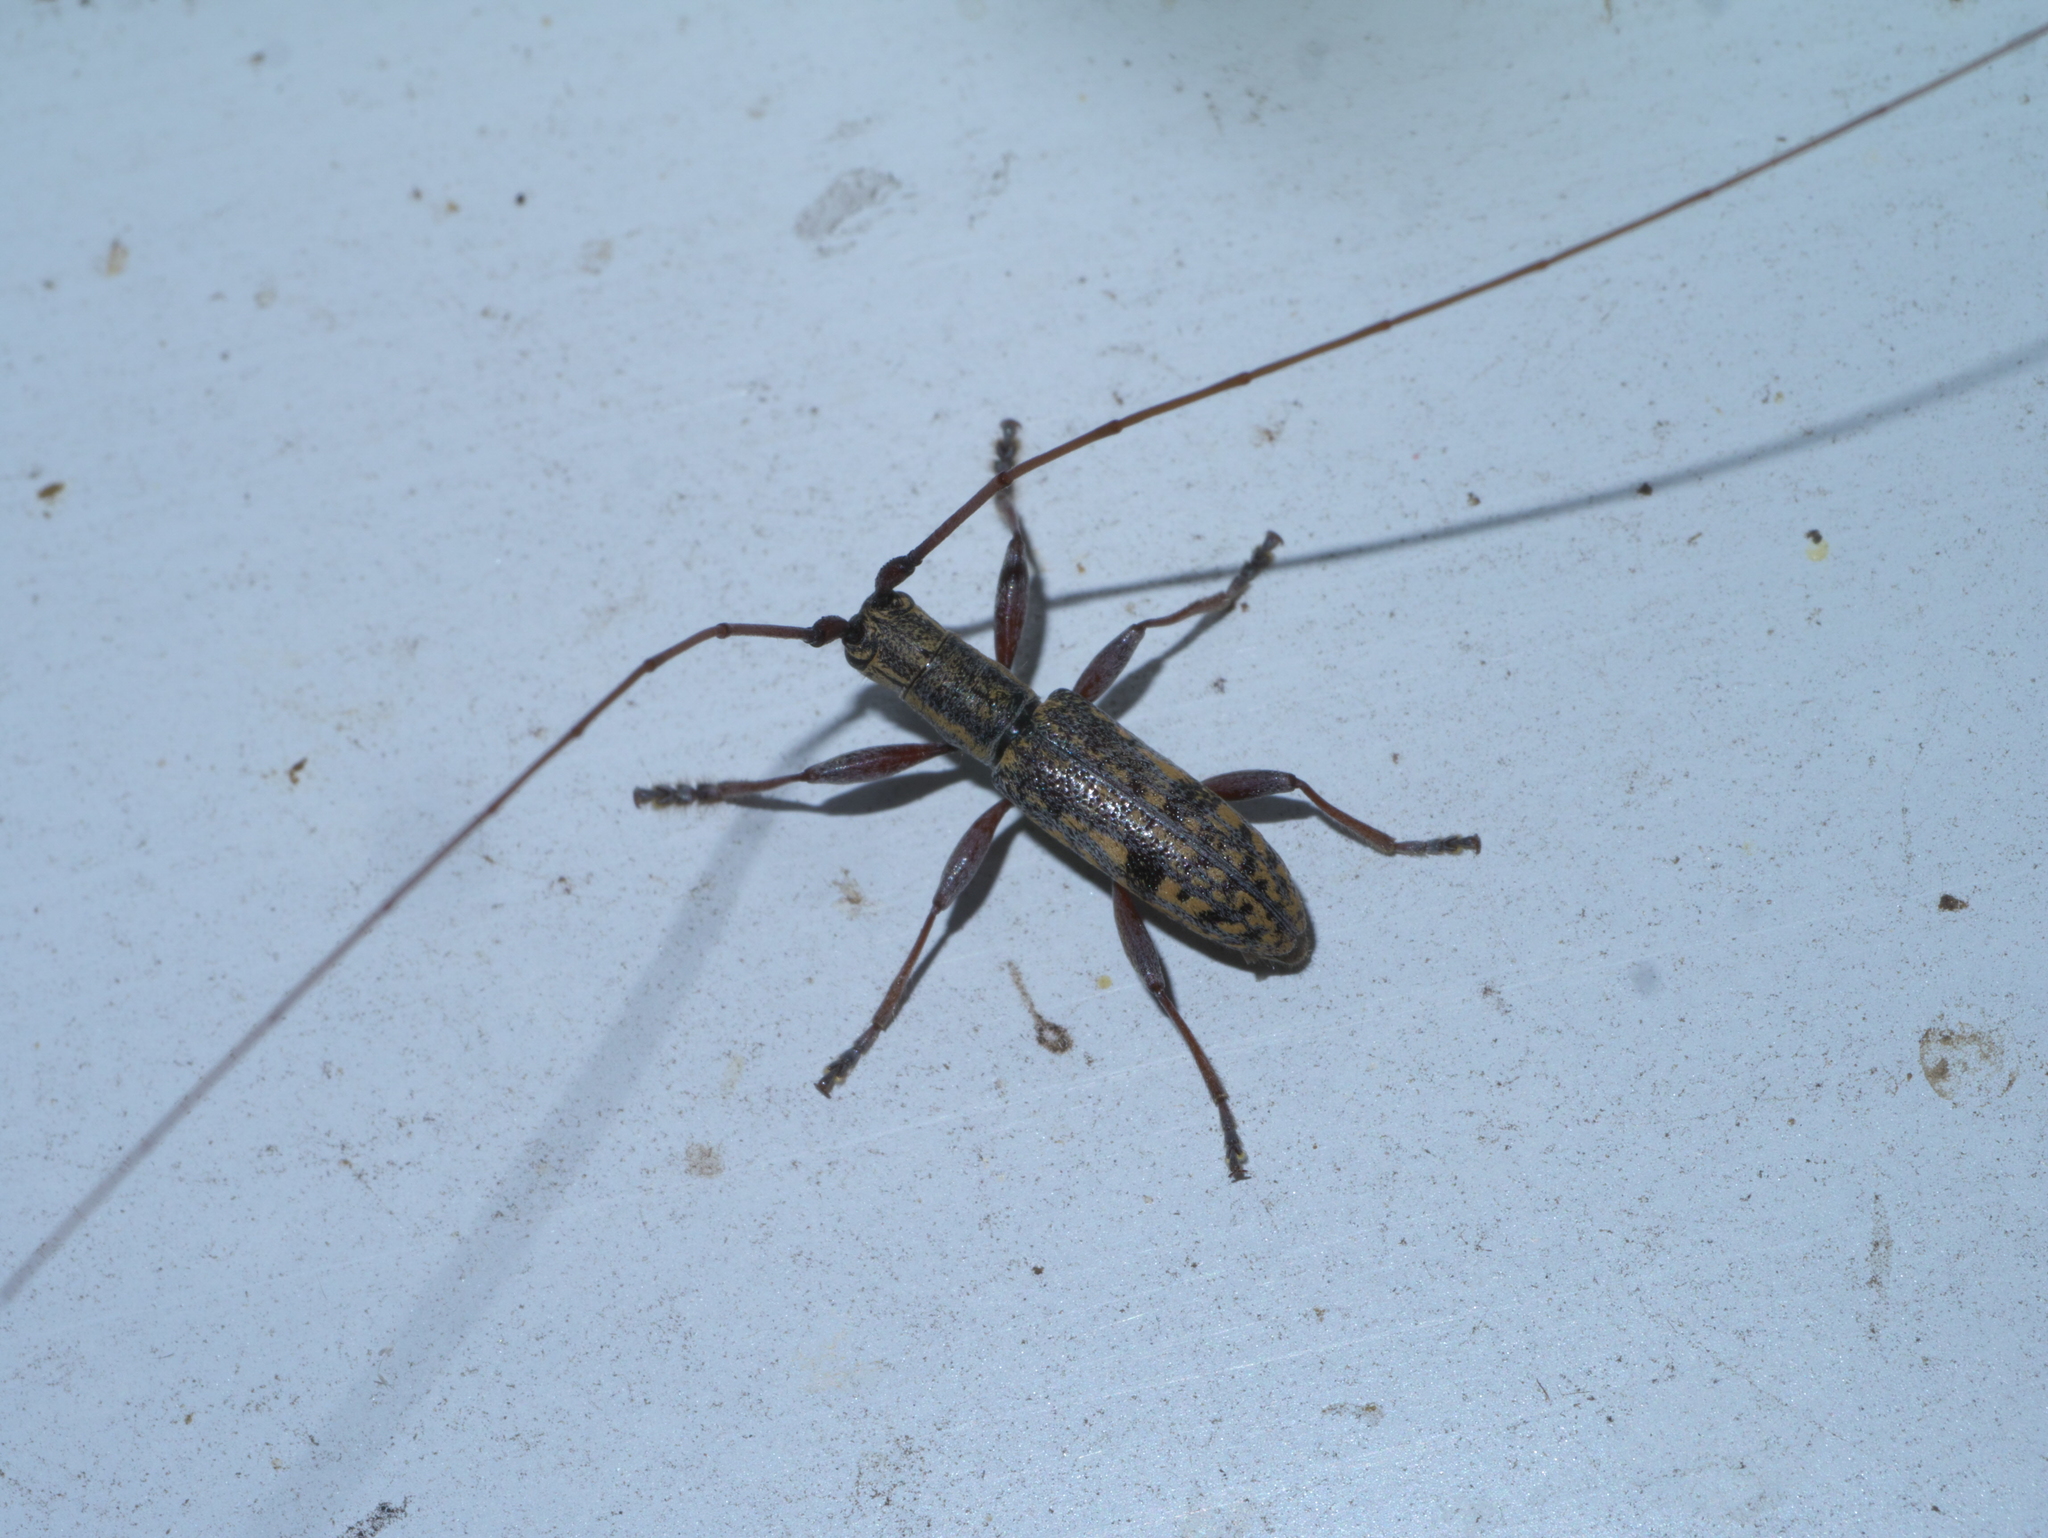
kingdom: Animalia
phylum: Arthropoda
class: Insecta
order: Coleoptera
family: Cerambycidae
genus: Dorcaschema
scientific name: Dorcaschema alternatum
